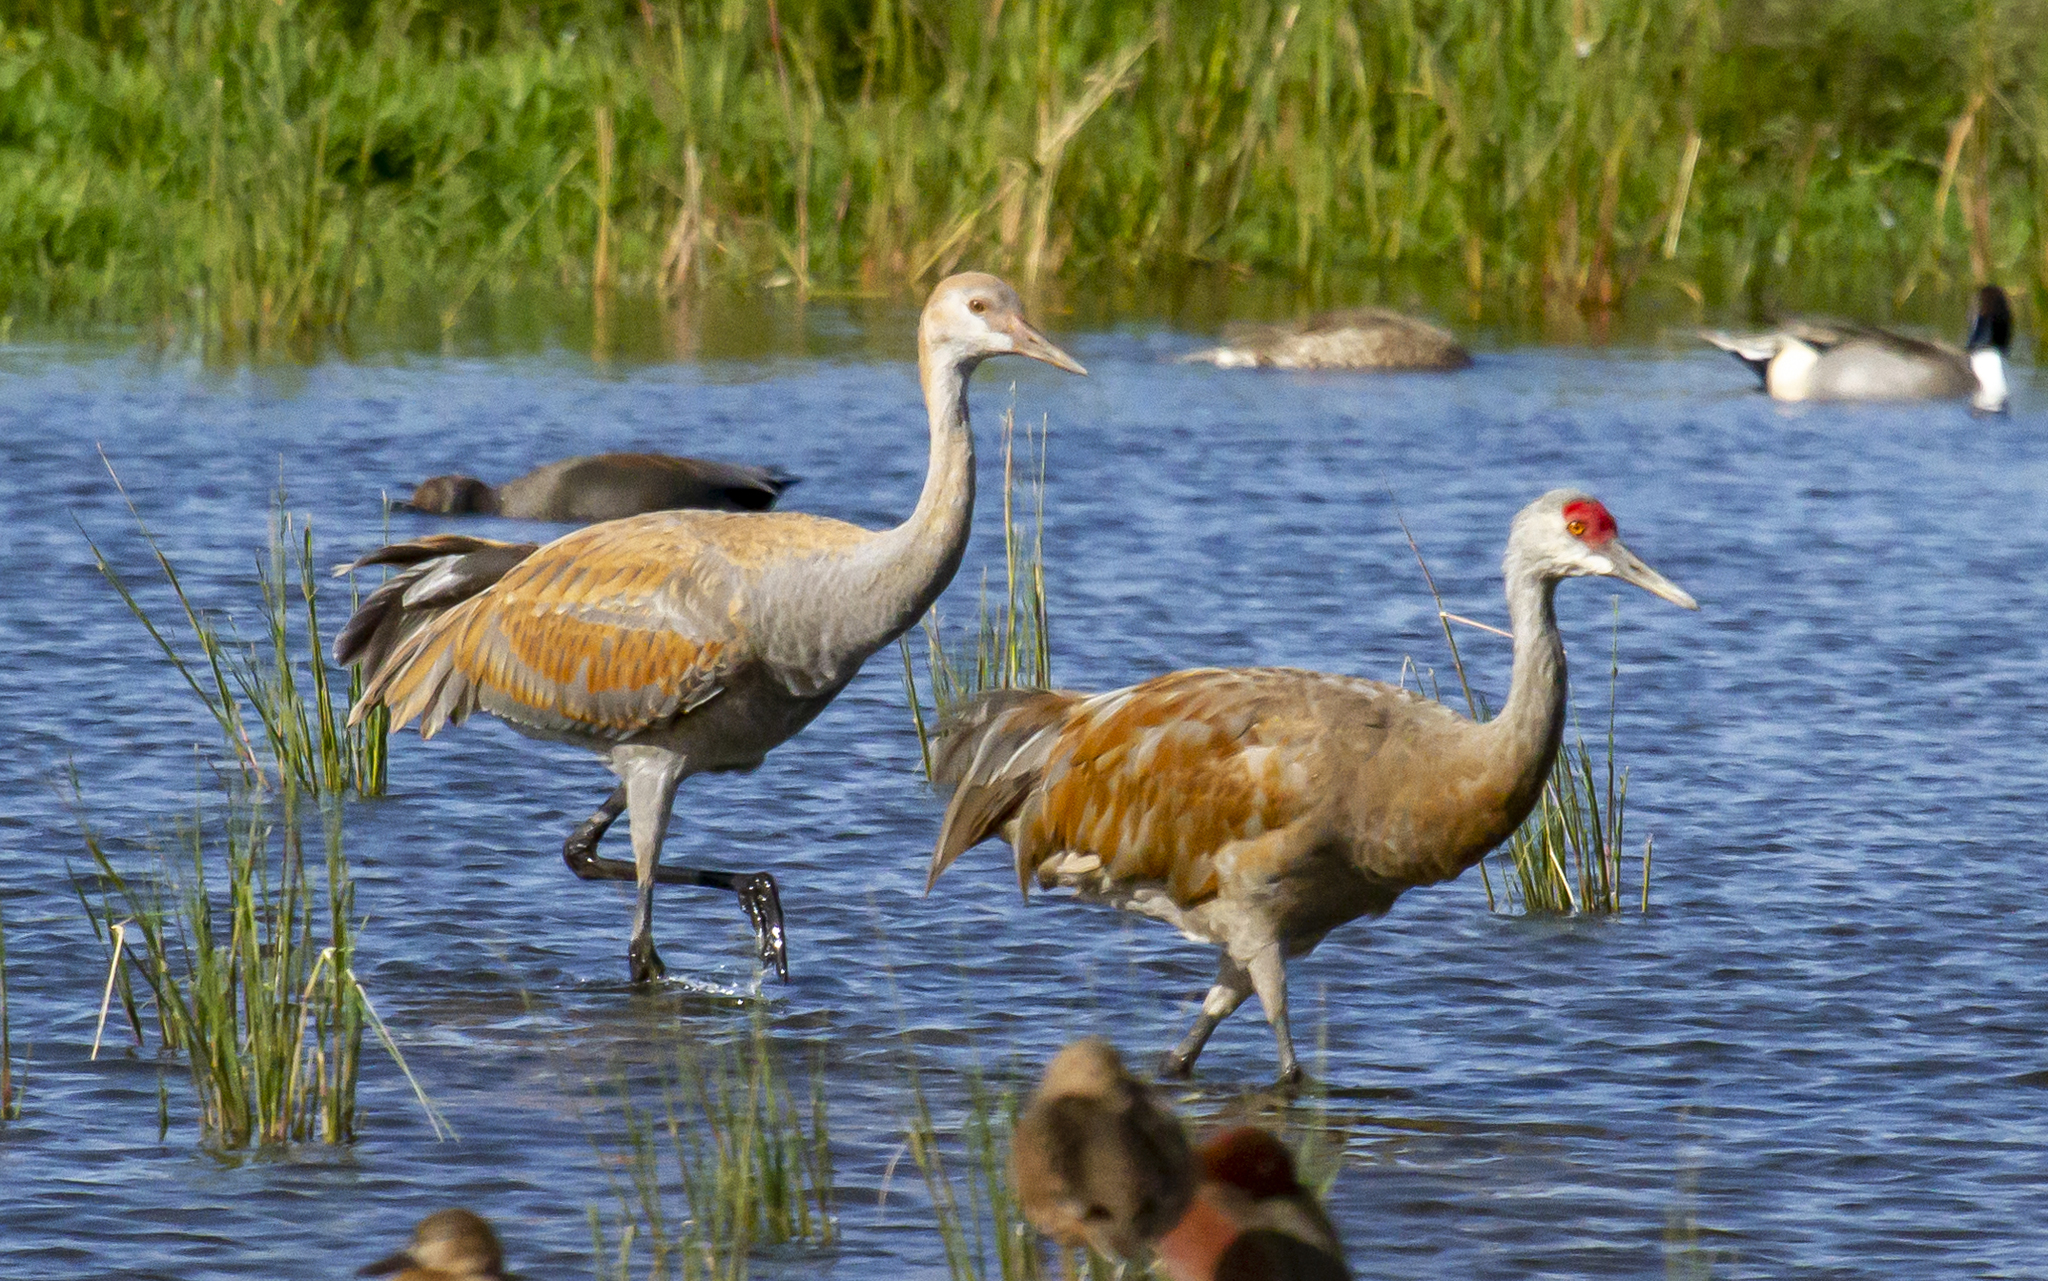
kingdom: Animalia
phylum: Chordata
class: Aves
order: Gruiformes
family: Gruidae
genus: Grus
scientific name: Grus canadensis
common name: Sandhill crane
